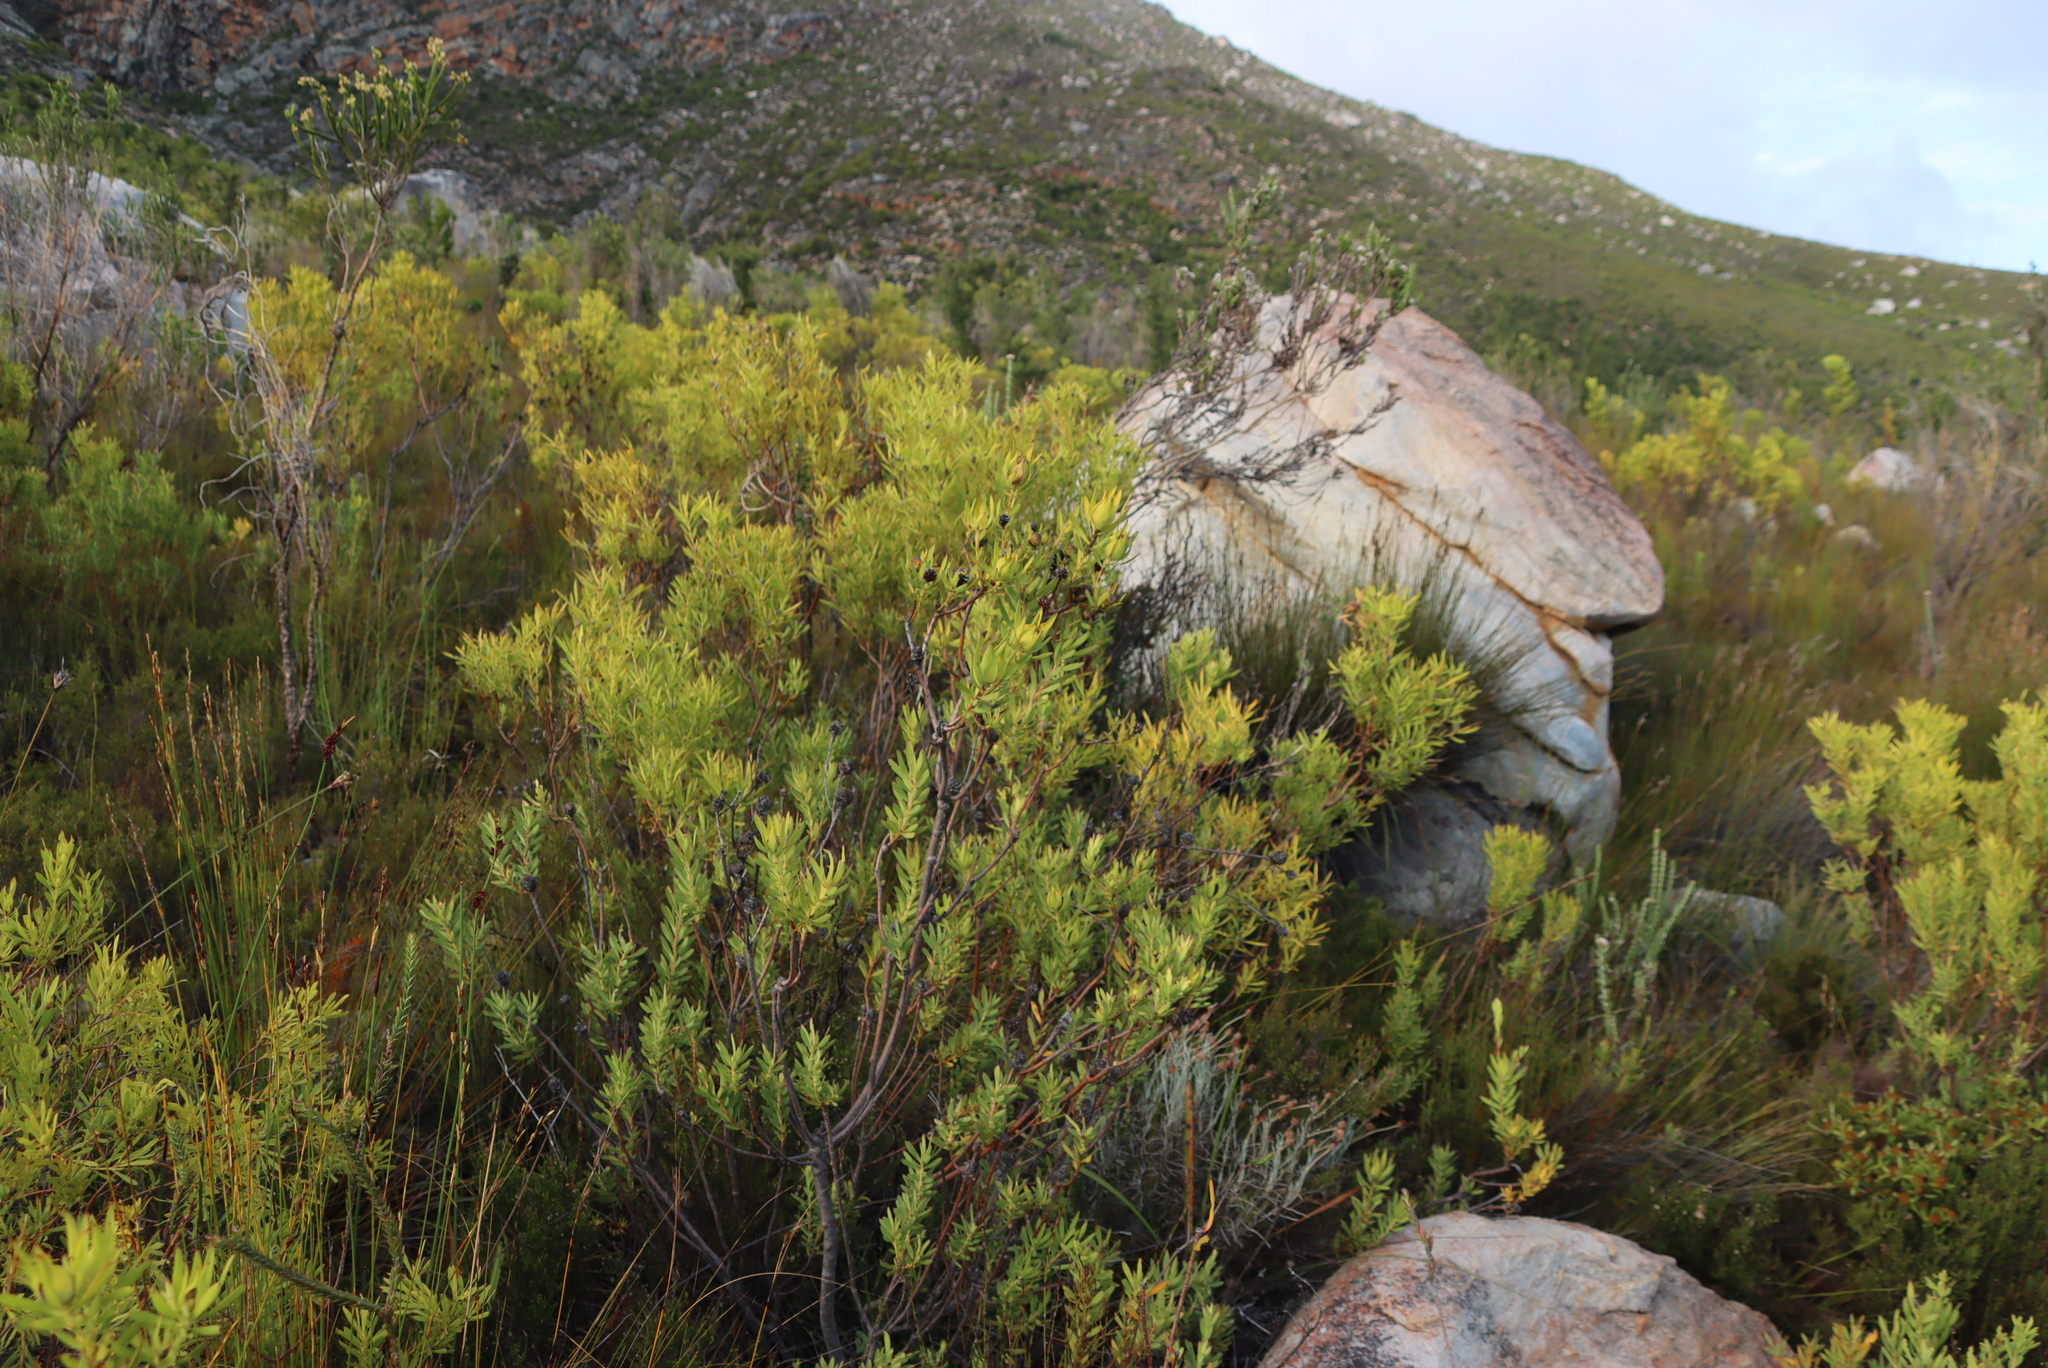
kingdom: Plantae
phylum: Tracheophyta
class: Magnoliopsida
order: Proteales
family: Proteaceae
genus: Leucadendron
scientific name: Leucadendron salignum
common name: Common sunshine conebush
